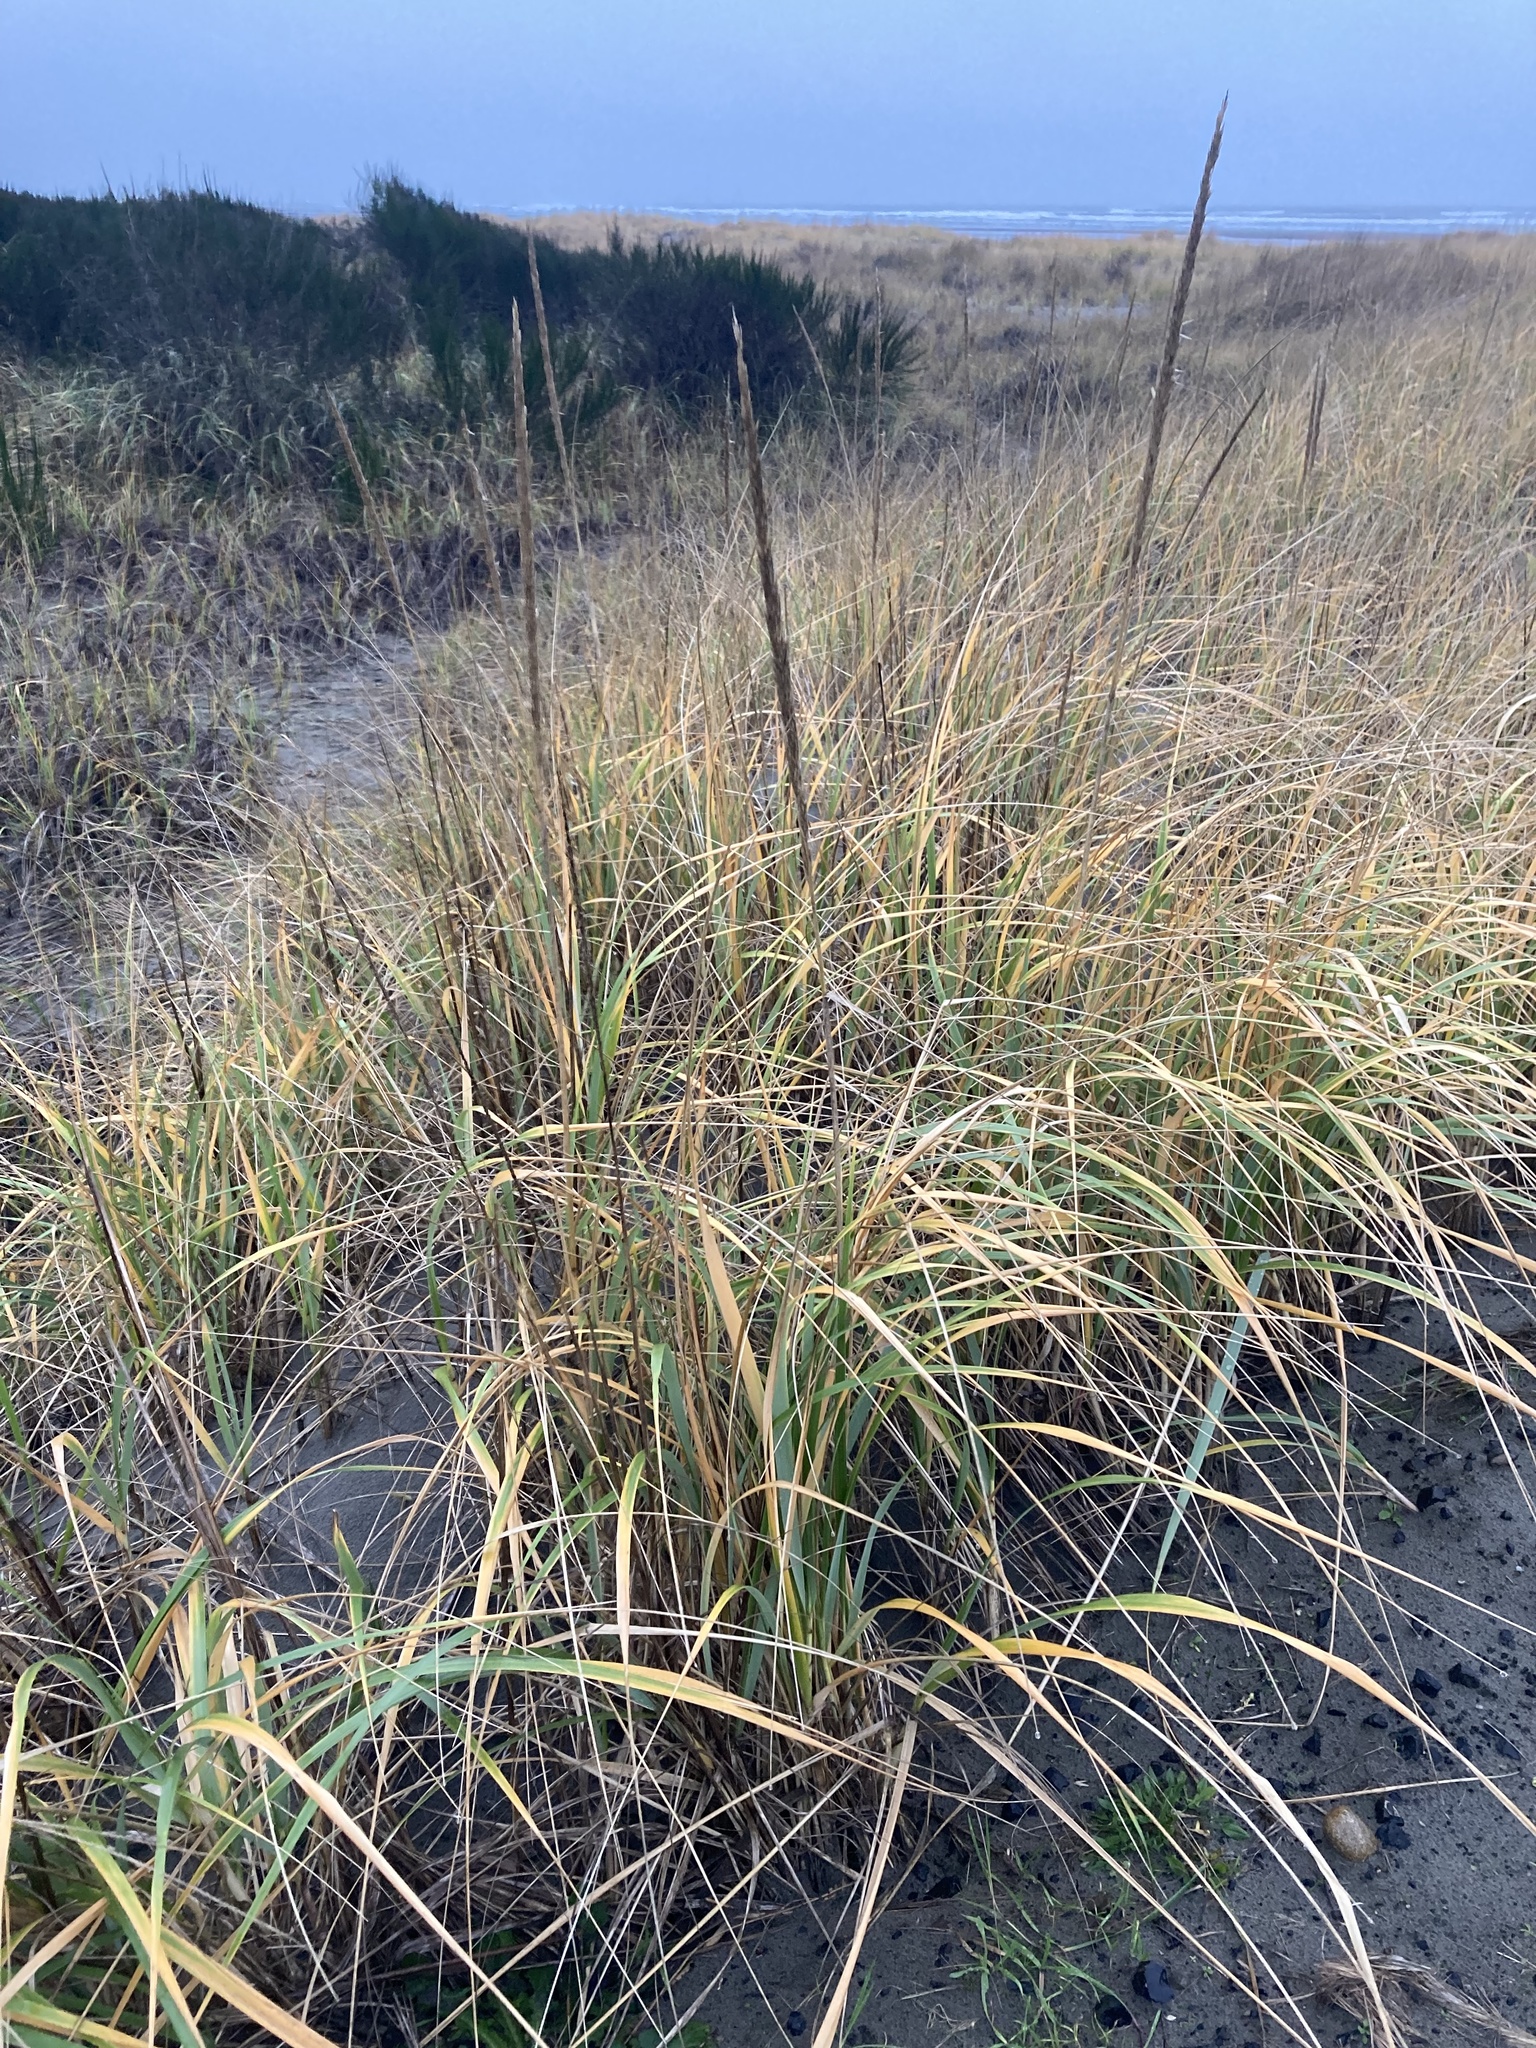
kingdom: Plantae
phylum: Tracheophyta
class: Liliopsida
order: Poales
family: Poaceae
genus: Leymus
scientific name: Leymus mollis
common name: American dune grass
